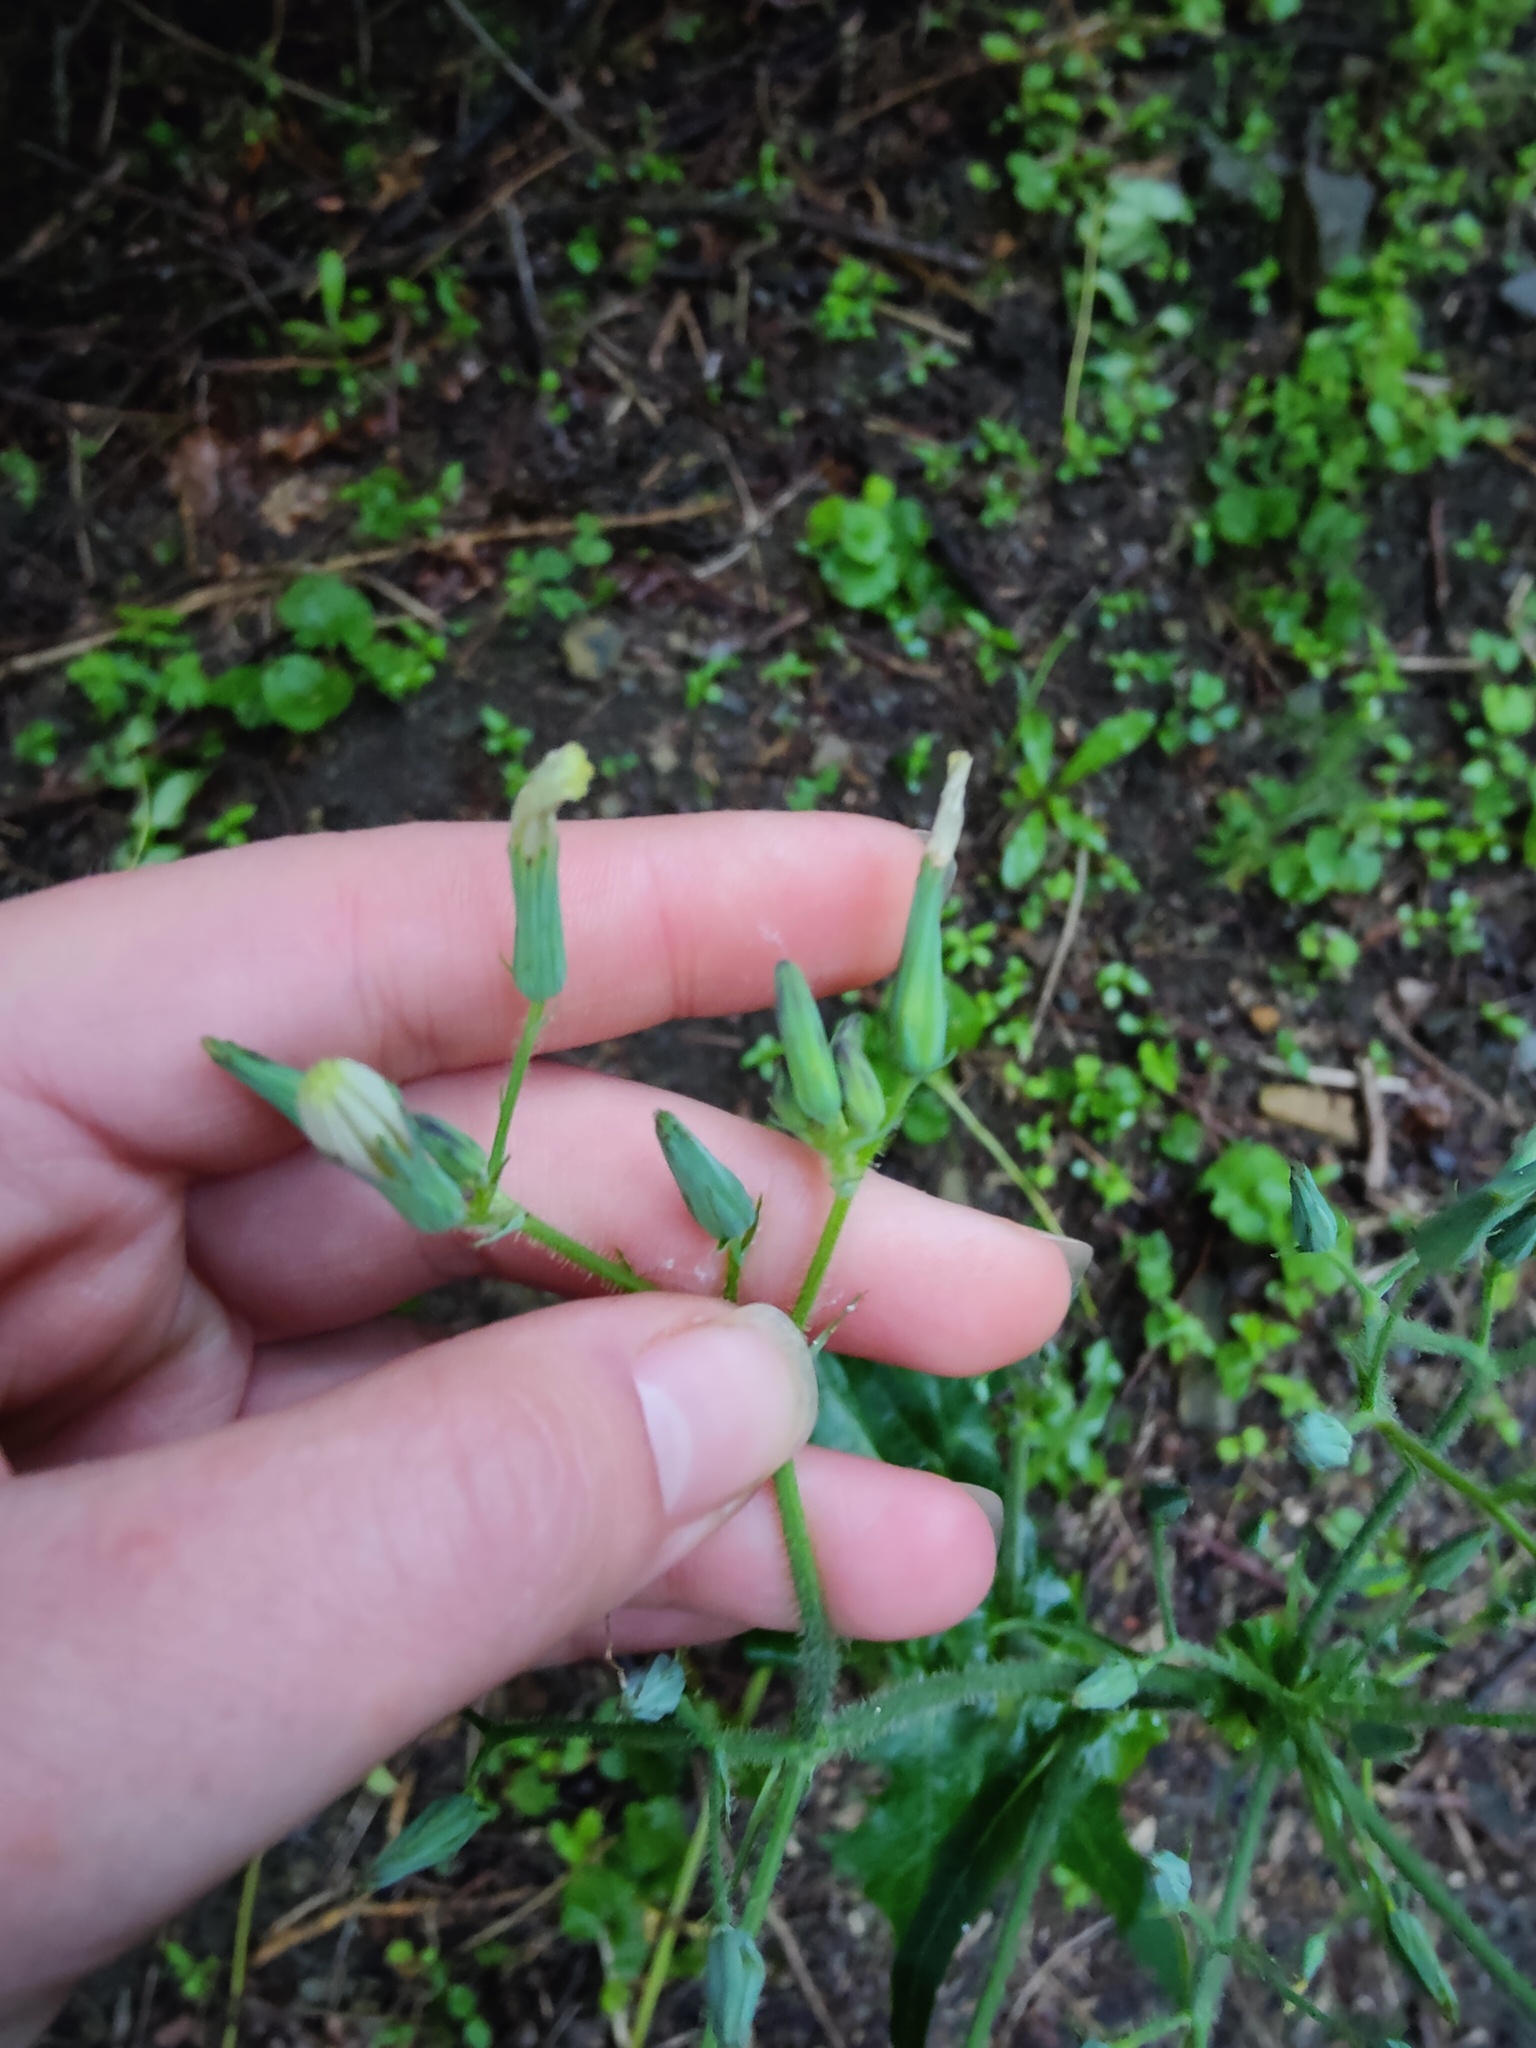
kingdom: Plantae
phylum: Tracheophyta
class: Magnoliopsida
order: Asterales
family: Asteraceae
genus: Lactuca
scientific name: Lactuca hispida
